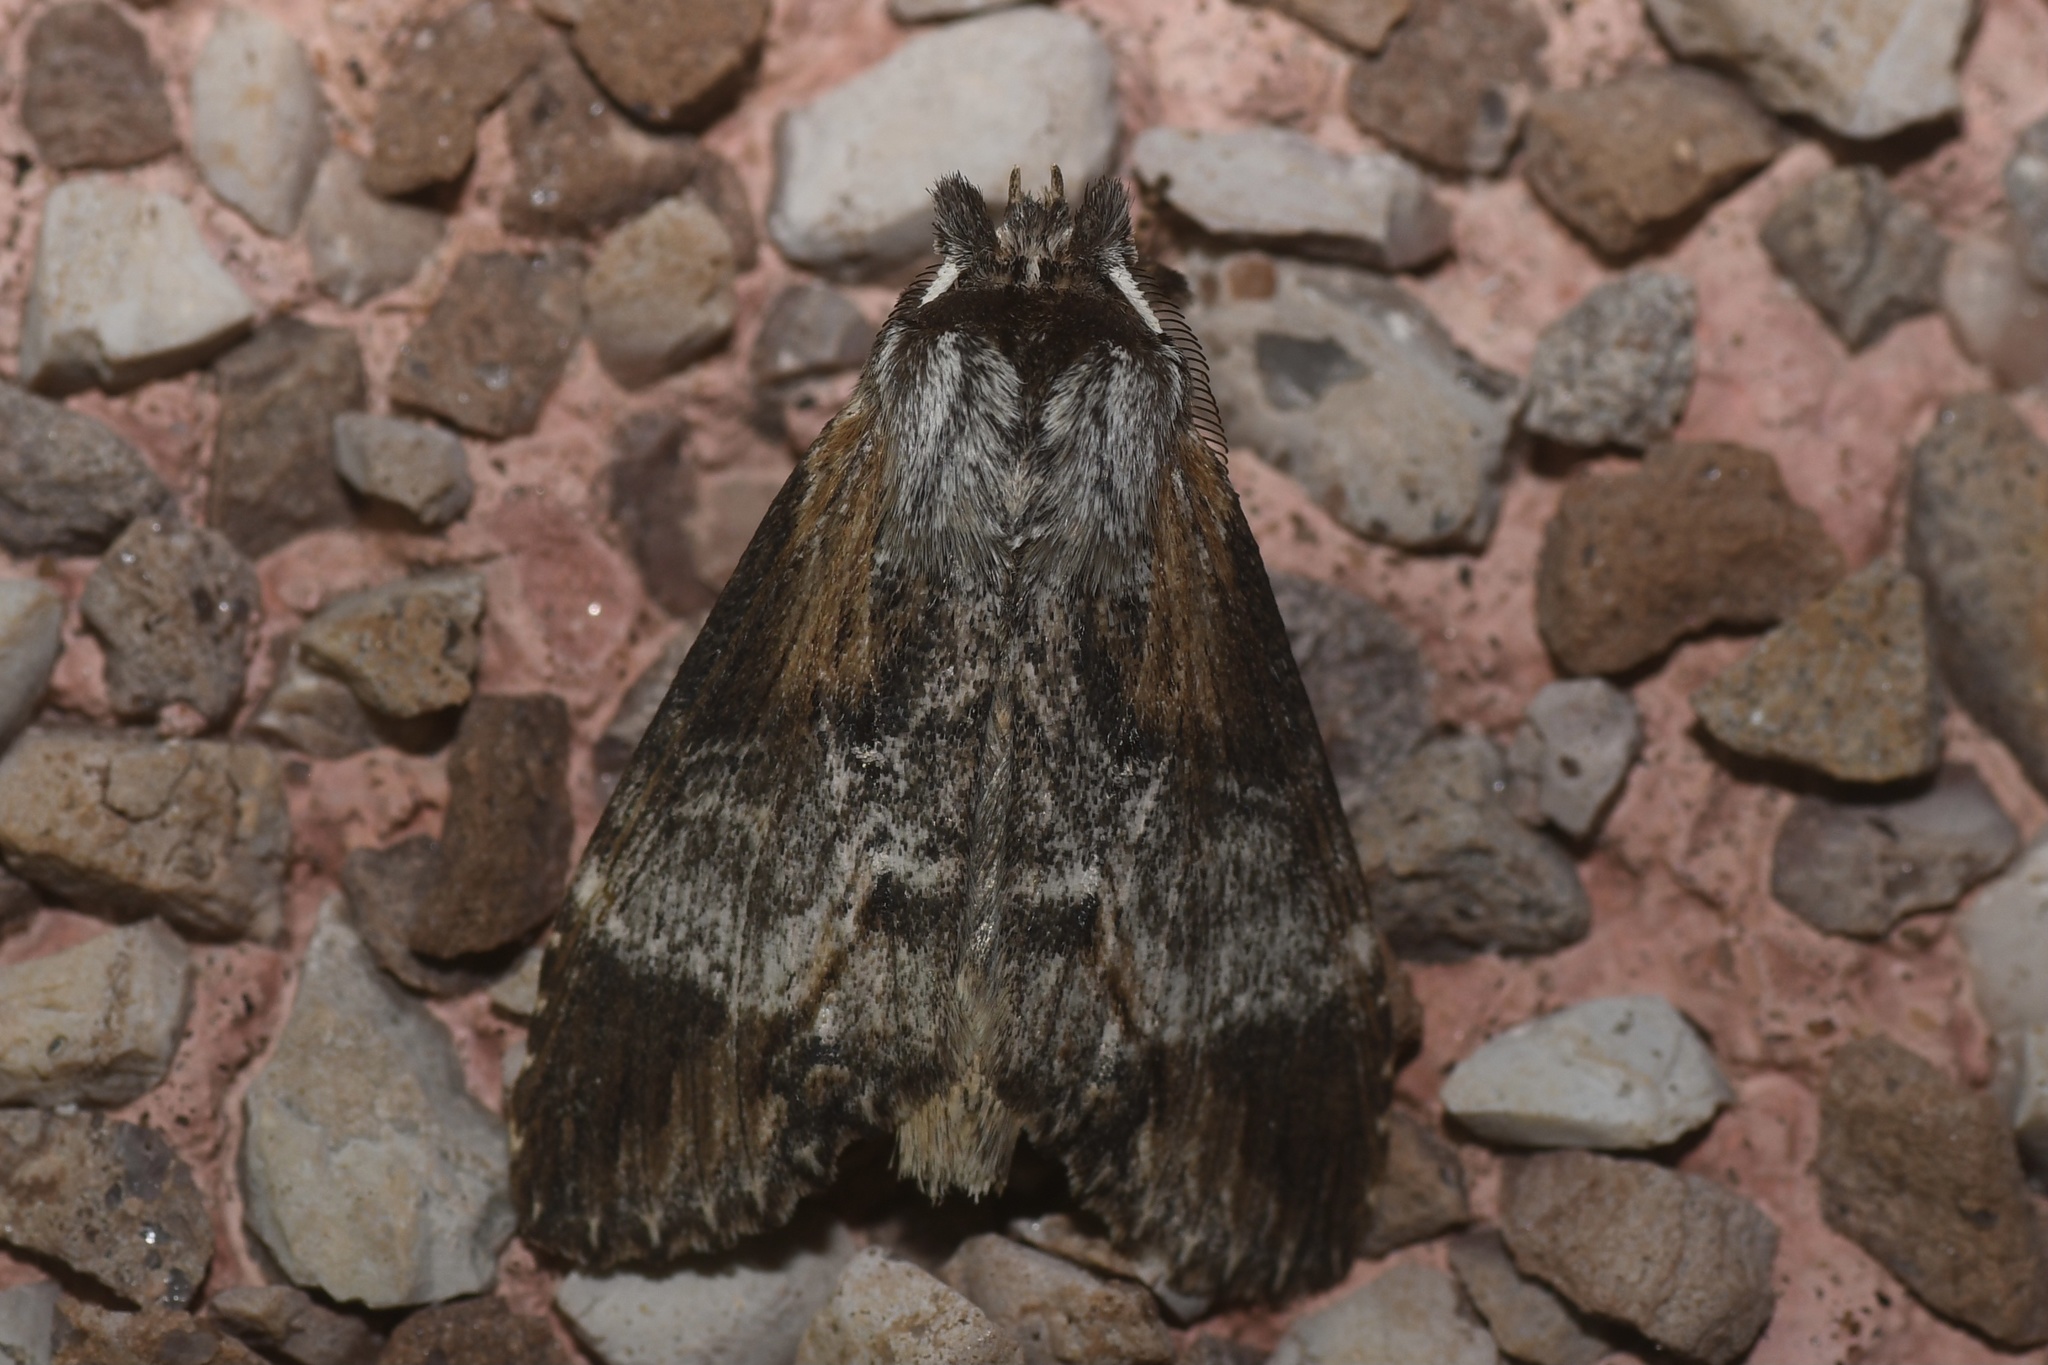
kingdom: Animalia
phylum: Arthropoda
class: Insecta
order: Lepidoptera
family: Notodontidae
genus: Dasylophia
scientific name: Dasylophia thyatiroides
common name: Gray-patched prominent
